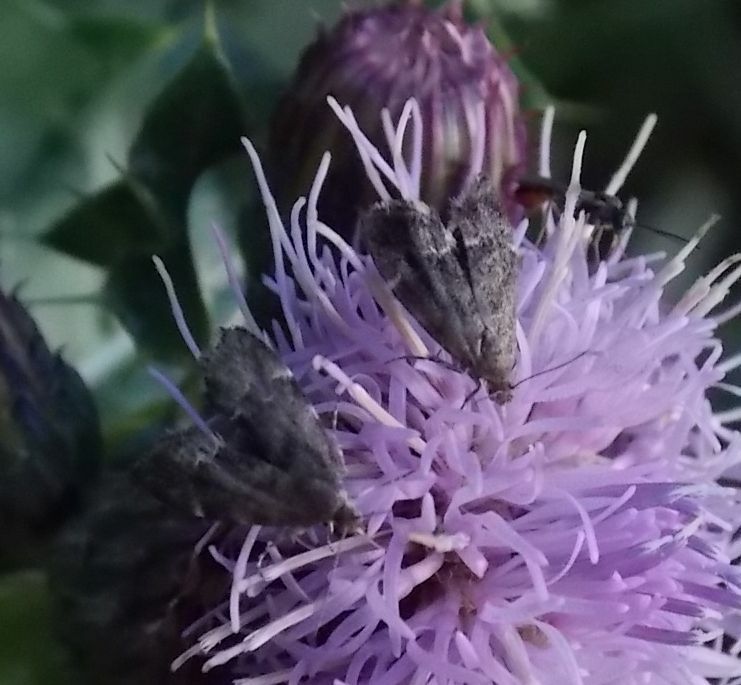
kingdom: Animalia
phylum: Arthropoda
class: Insecta
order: Lepidoptera
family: Choreutidae
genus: Anthophila
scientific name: Anthophila fabriciana
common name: Nettle-tap
